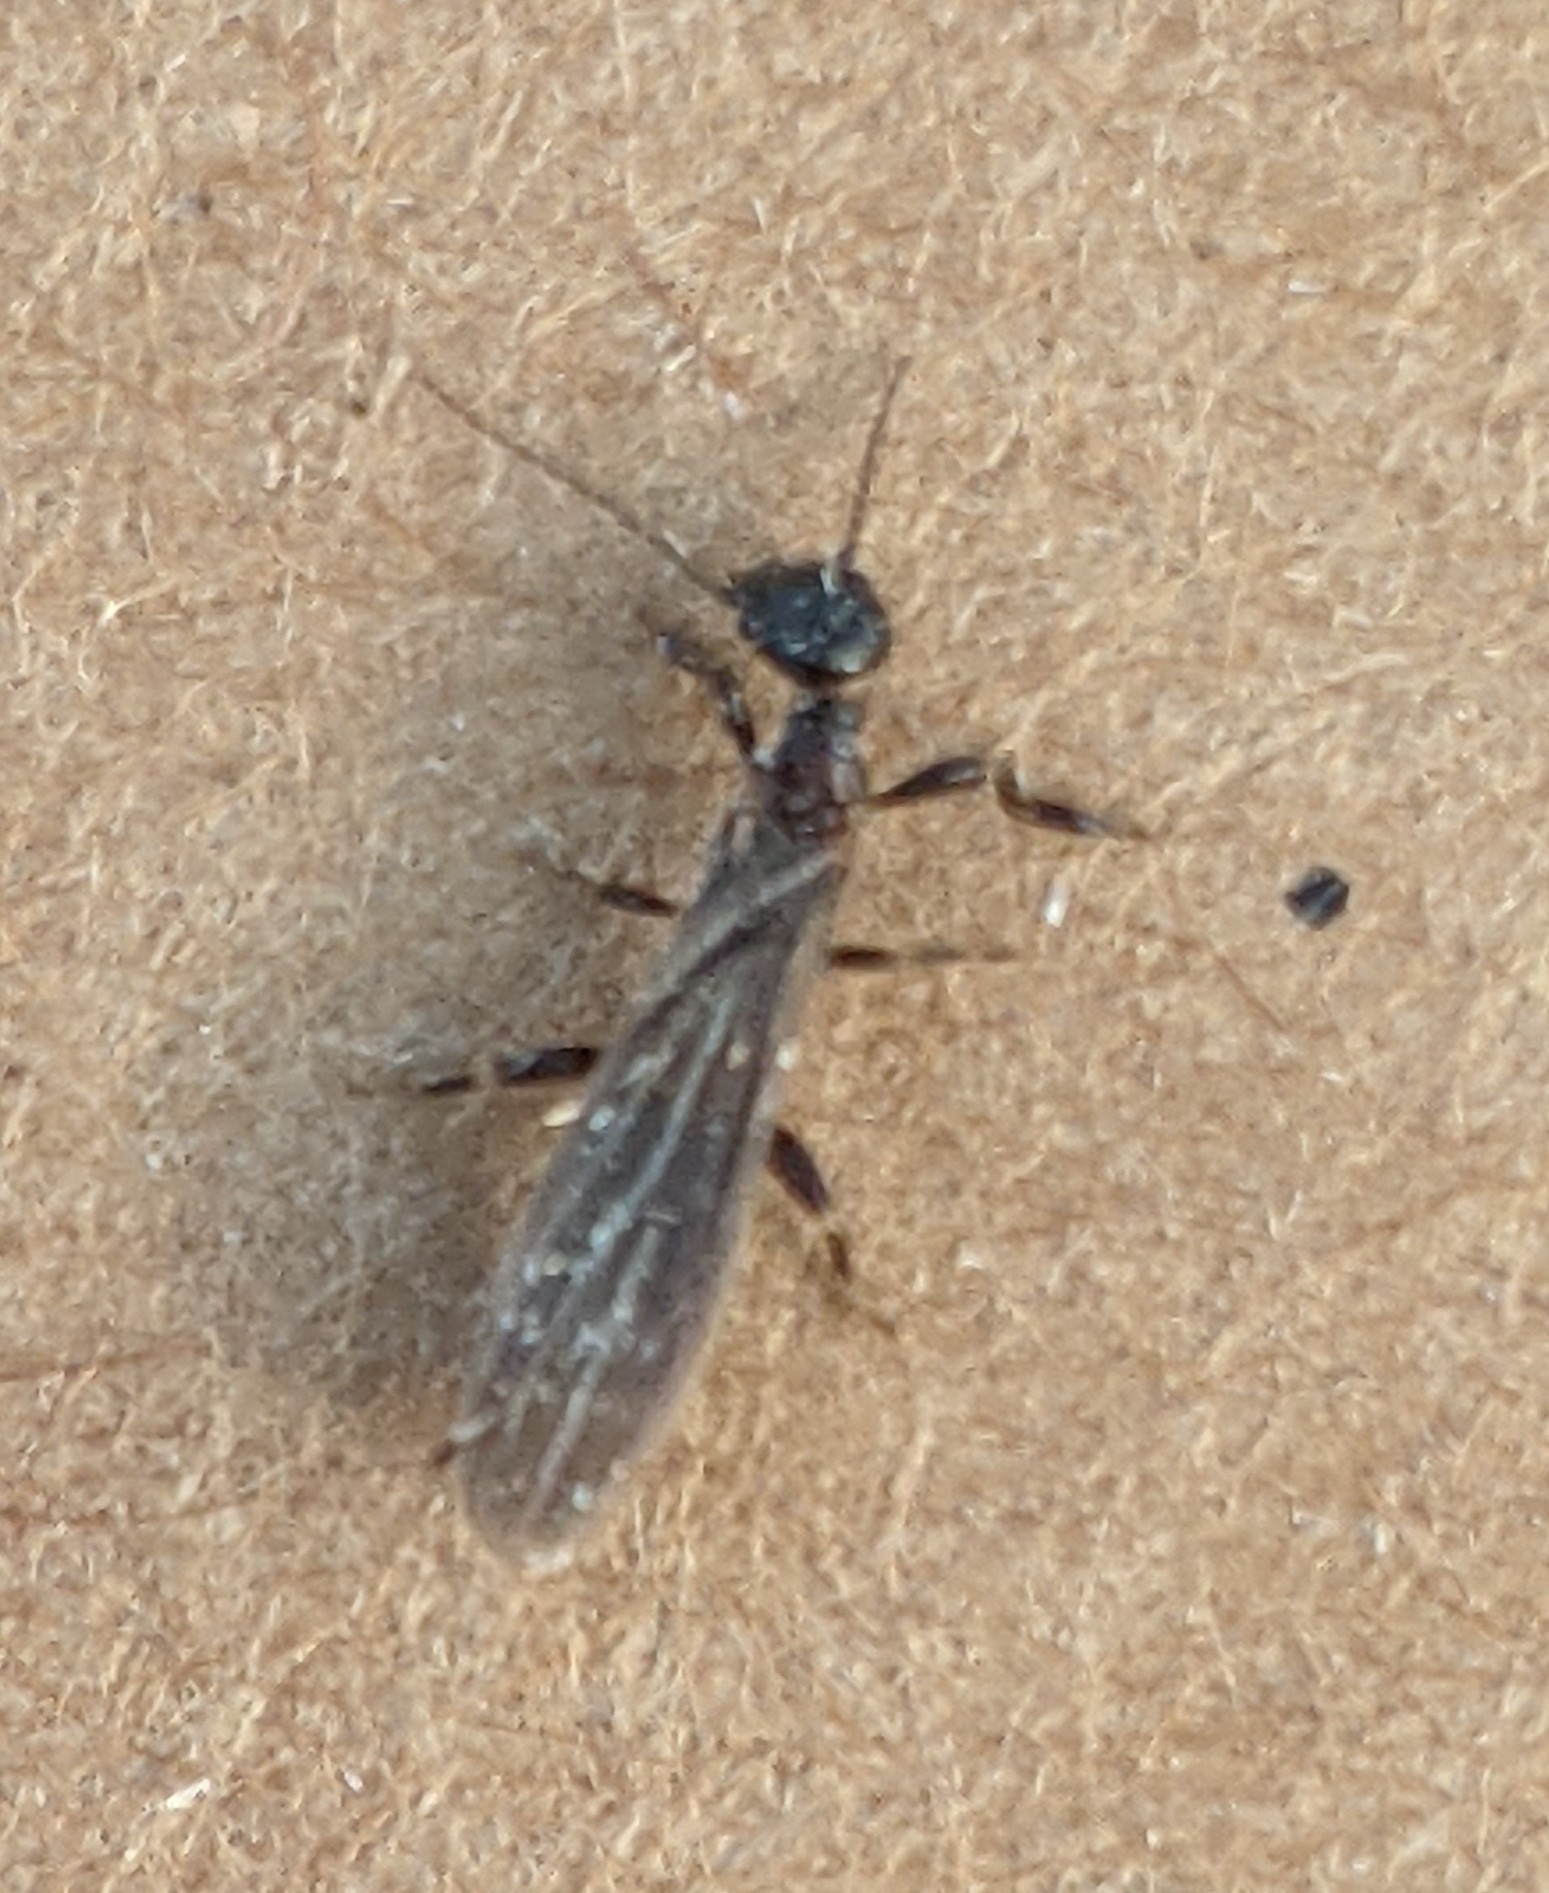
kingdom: Animalia
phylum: Arthropoda
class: Insecta
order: Embioptera
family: Oligotomidae
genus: Oligotoma
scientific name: Oligotoma nigra
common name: Black webspinner
